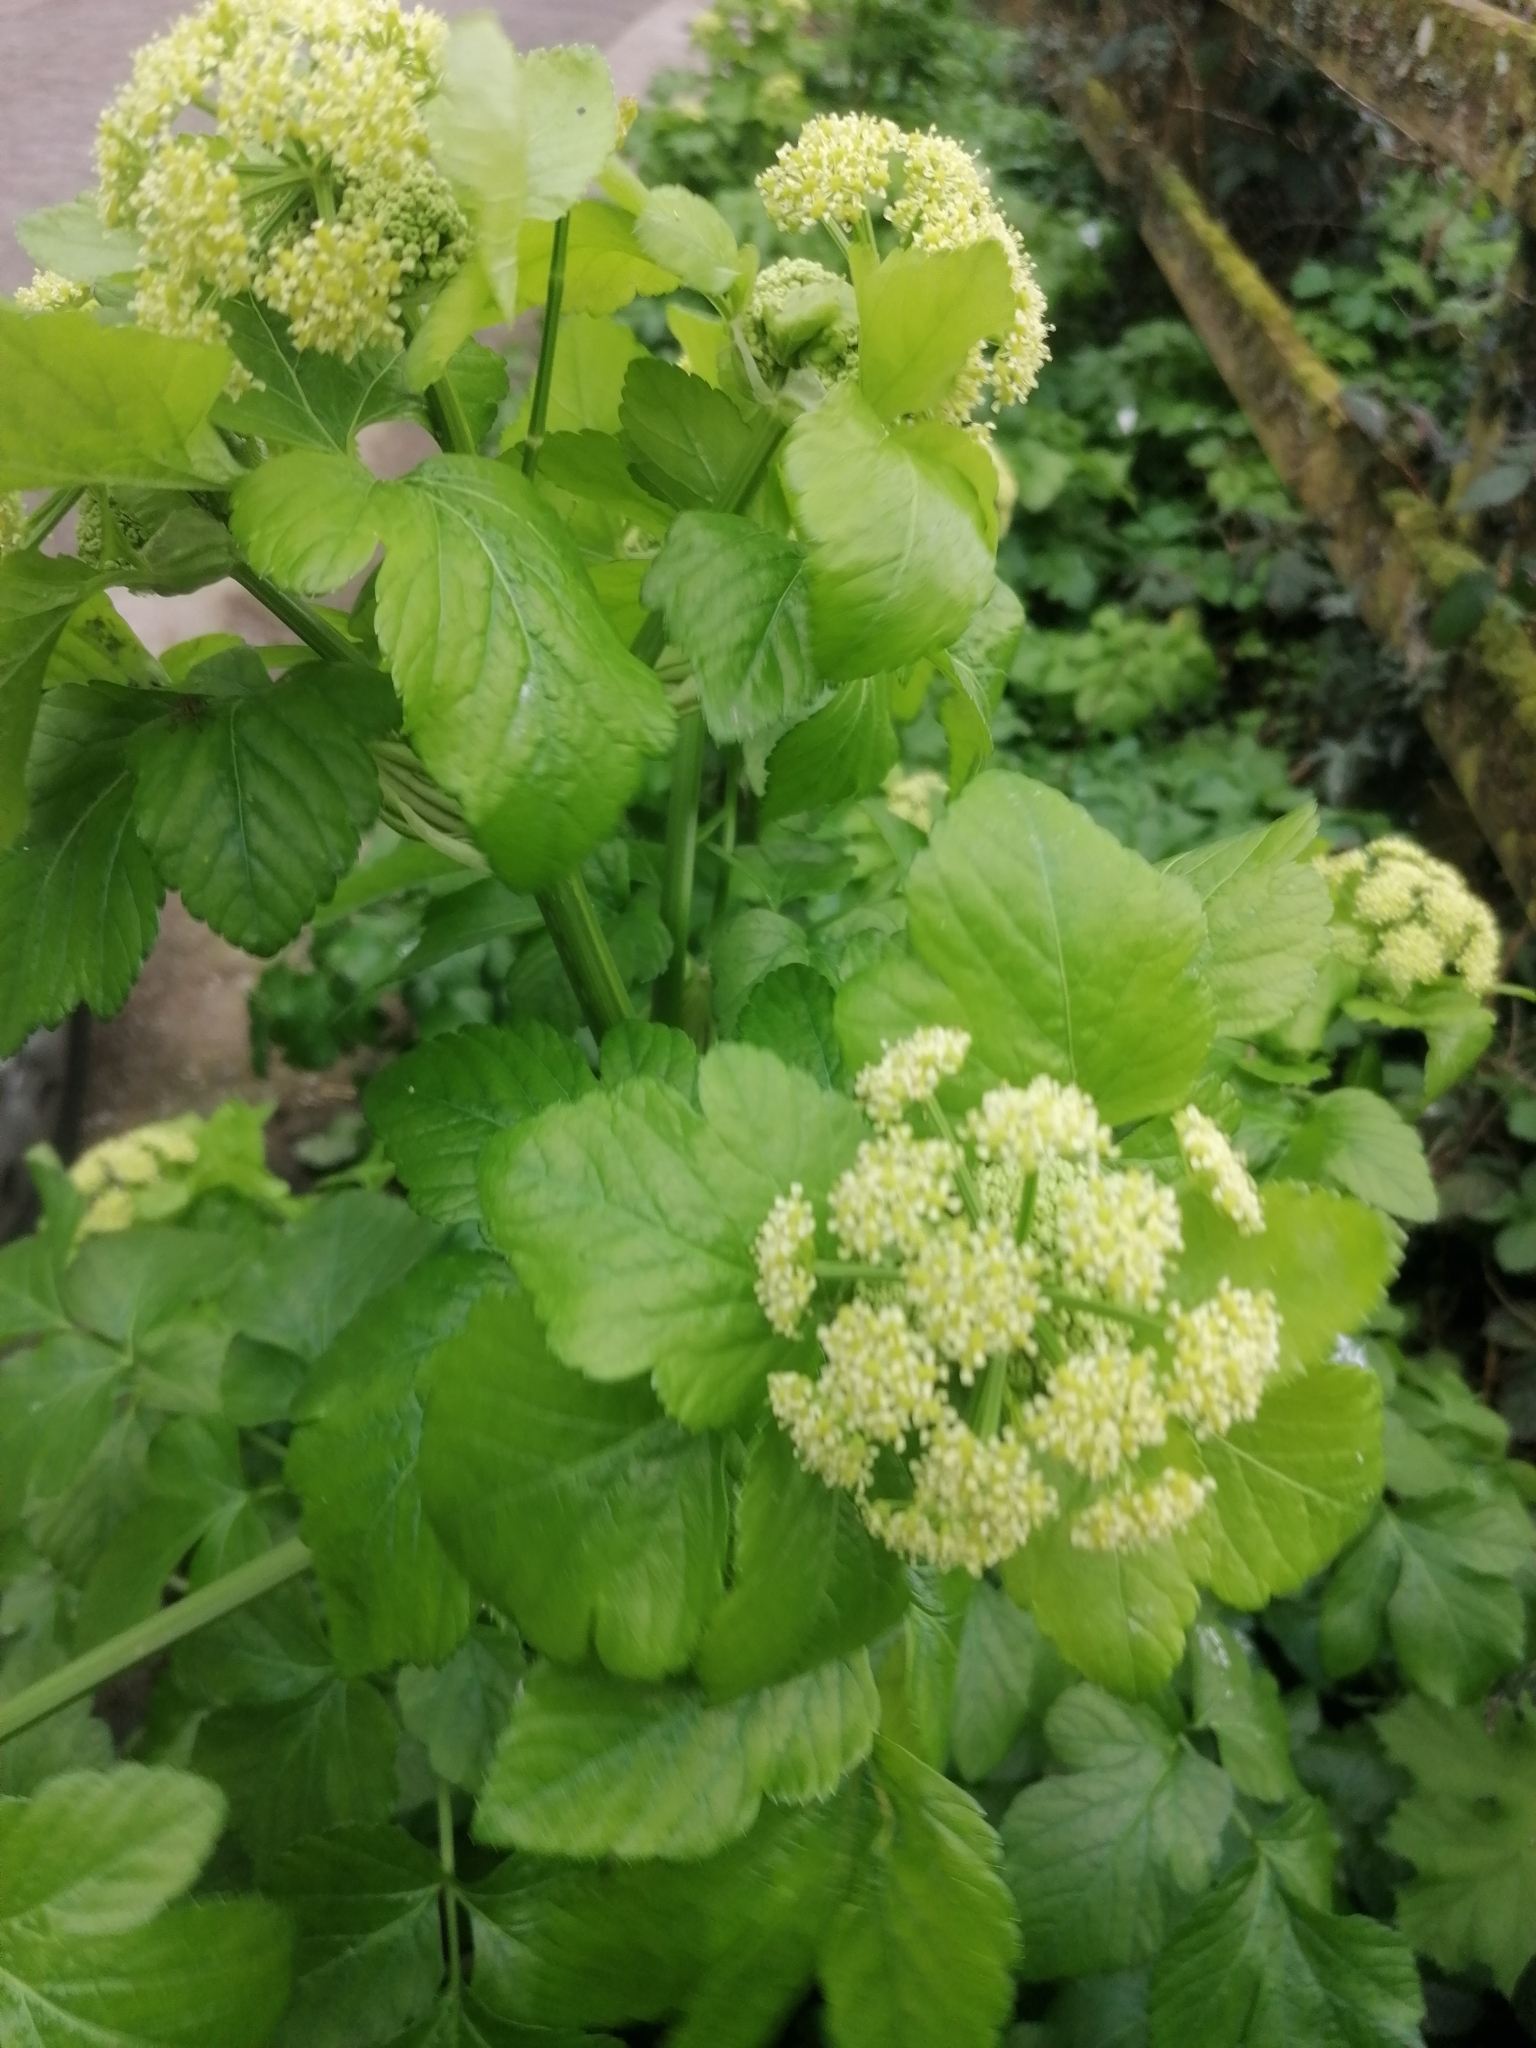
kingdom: Plantae
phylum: Tracheophyta
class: Magnoliopsida
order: Apiales
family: Apiaceae
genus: Smyrnium
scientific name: Smyrnium olusatrum
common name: Alexanders
